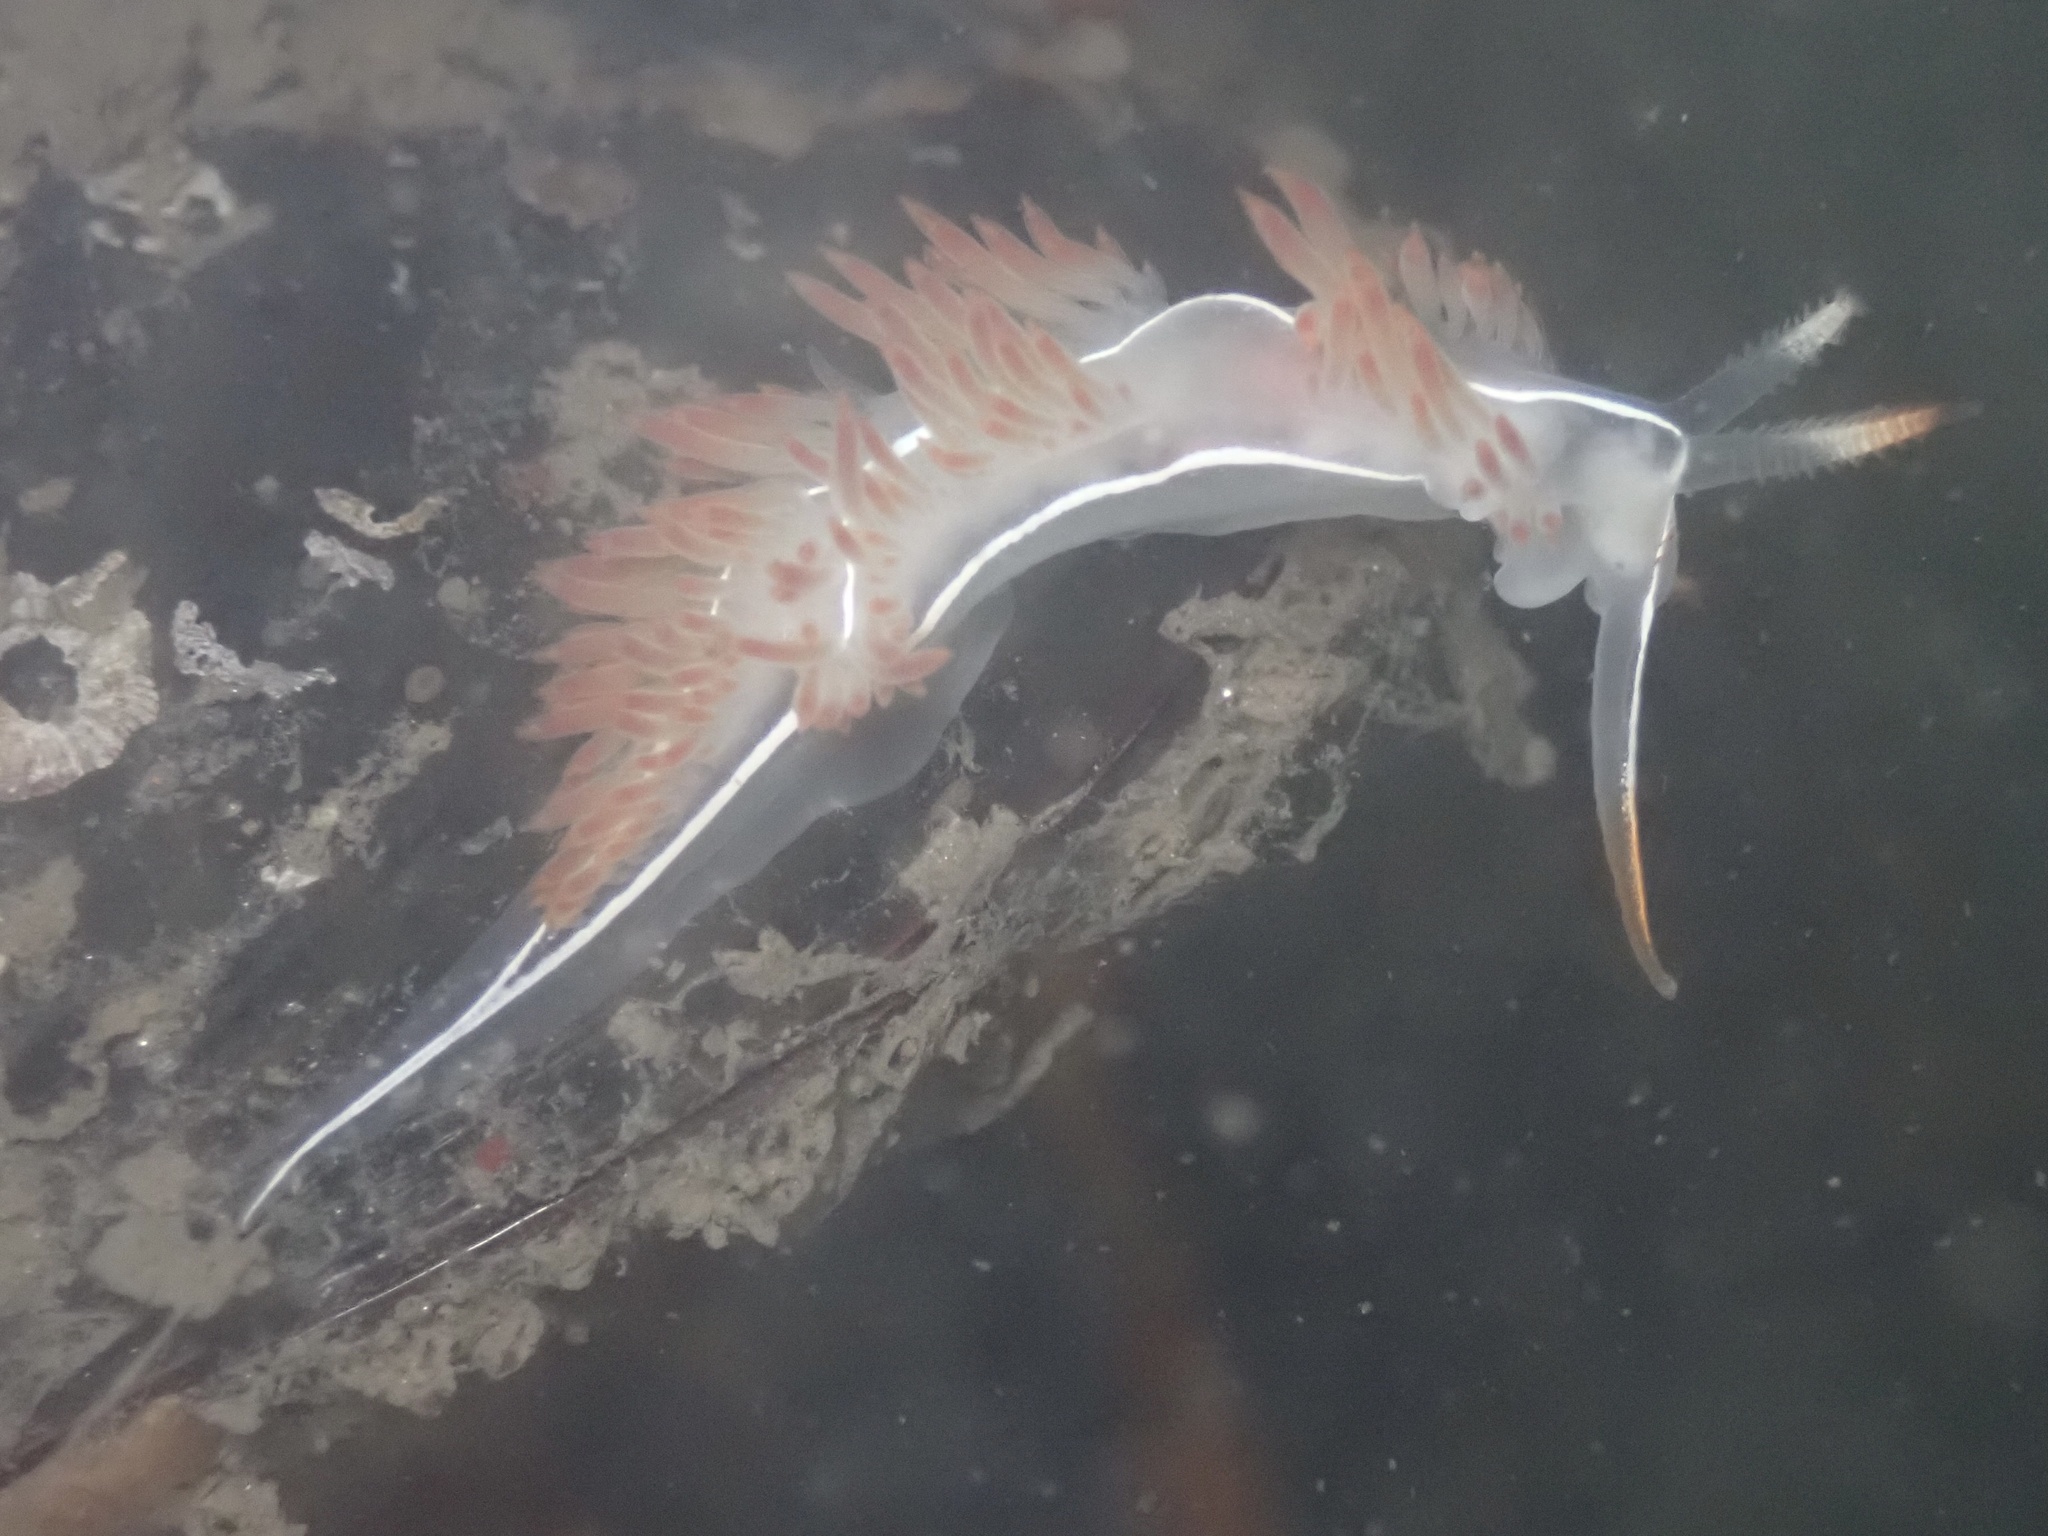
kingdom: Animalia
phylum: Mollusca
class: Gastropoda
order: Nudibranchia
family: Coryphellidae
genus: Coryphella
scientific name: Coryphella trilineata
